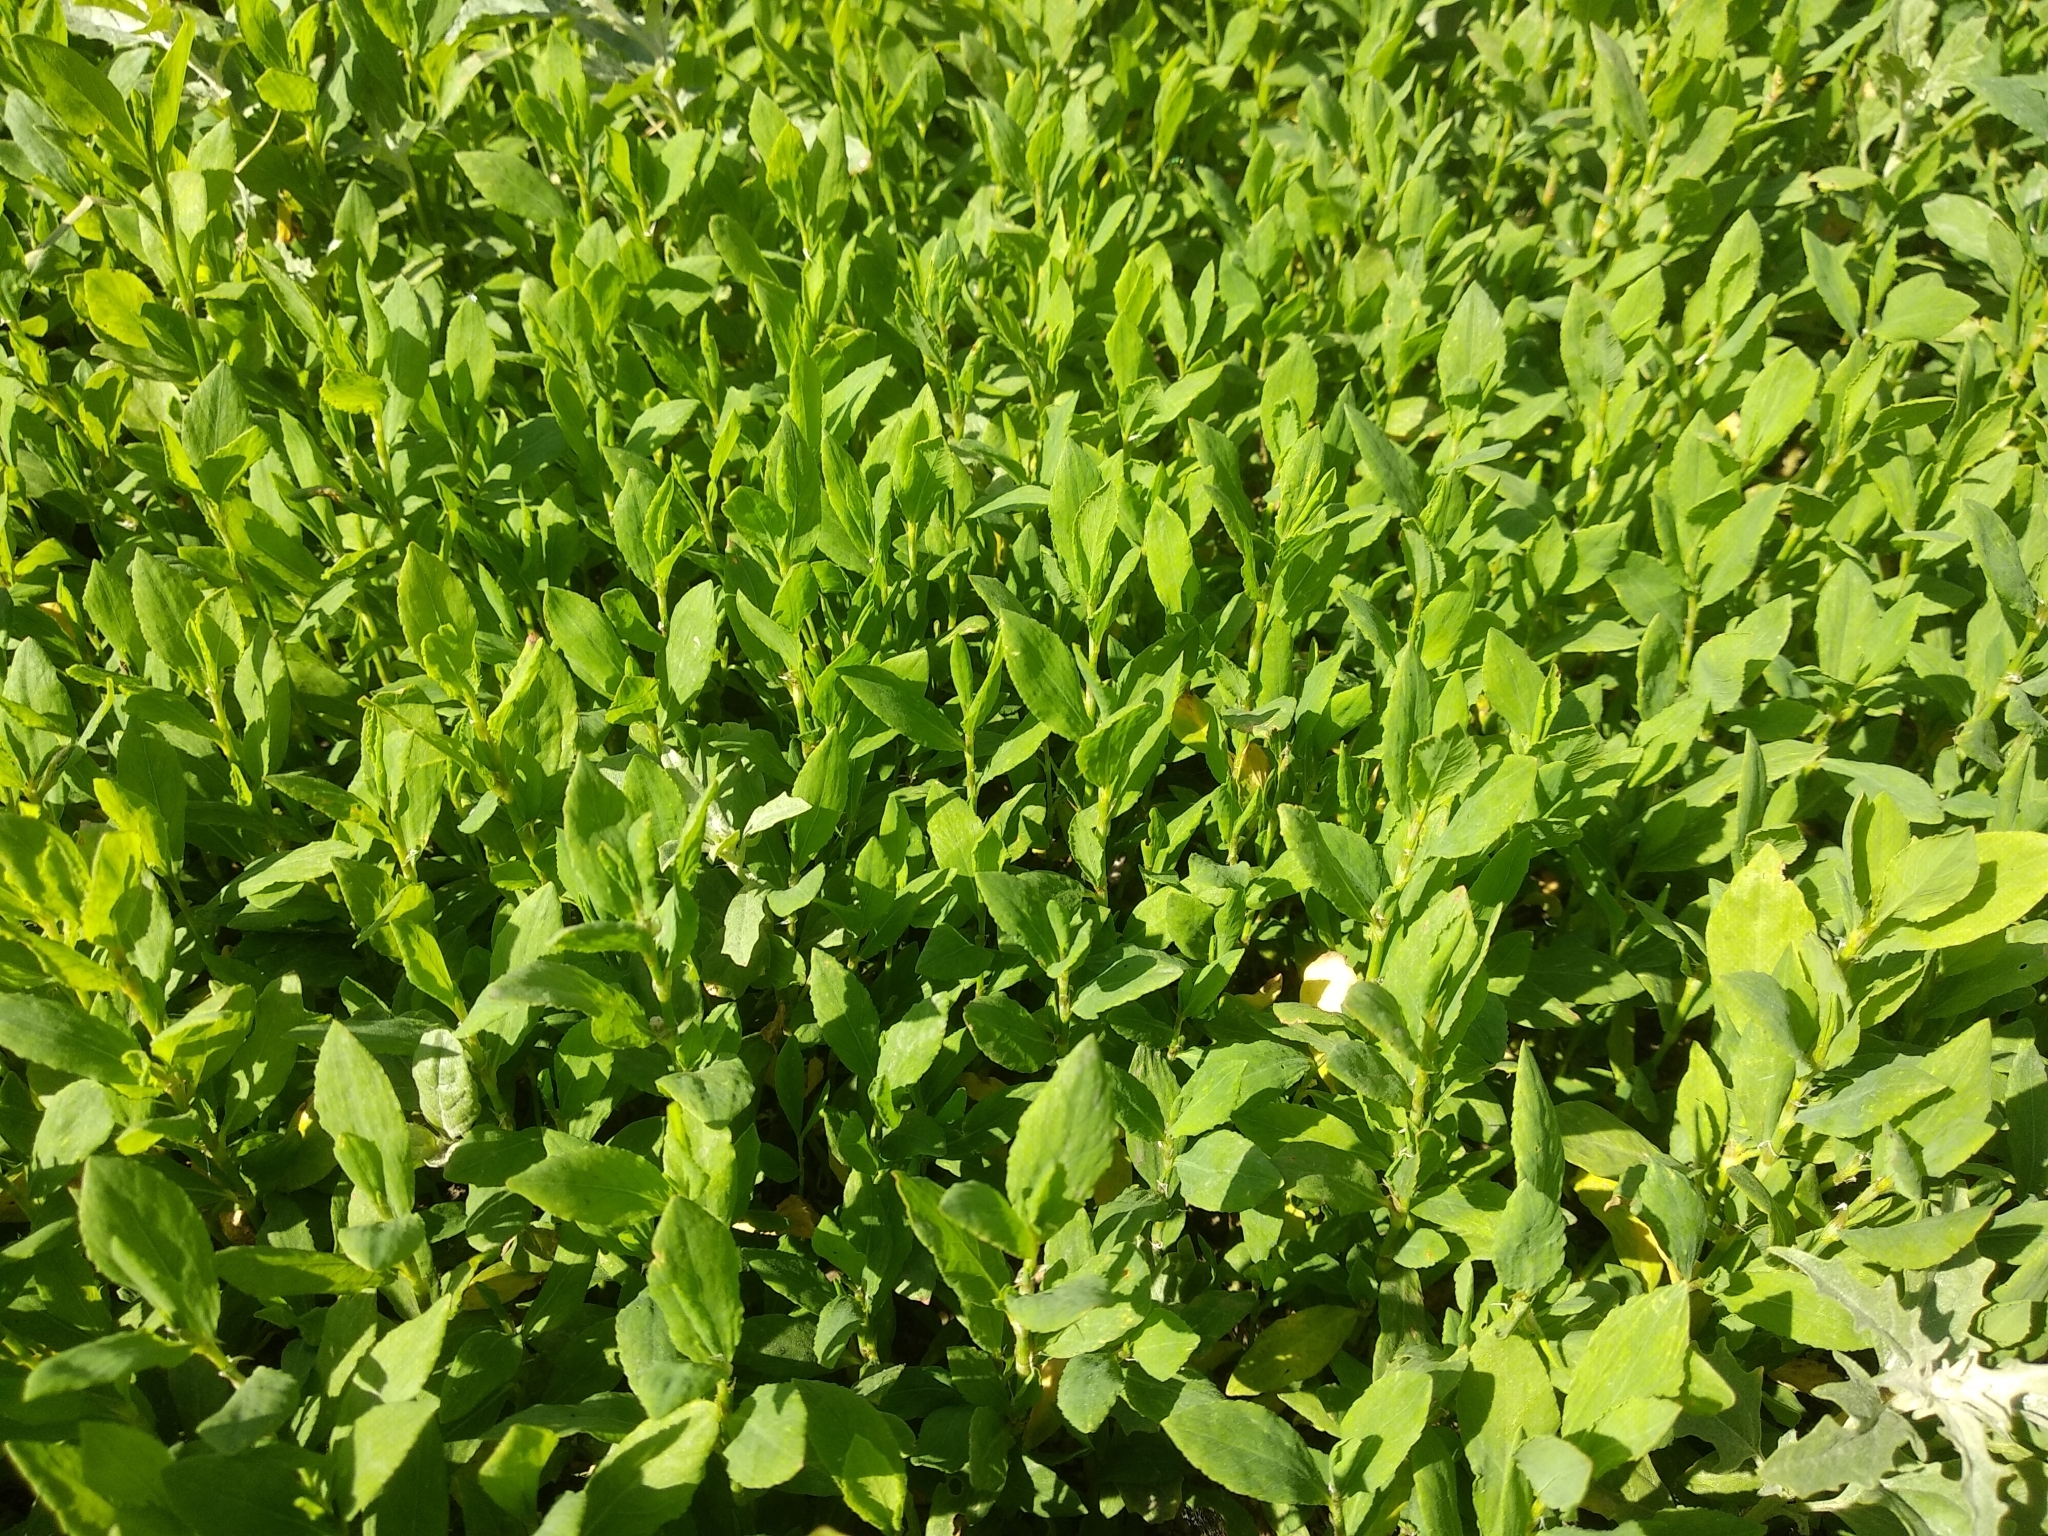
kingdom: Plantae
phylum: Tracheophyta
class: Magnoliopsida
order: Caryophyllales
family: Polygonaceae
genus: Polygonum
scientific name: Polygonum aviculare
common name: Prostrate knotweed
